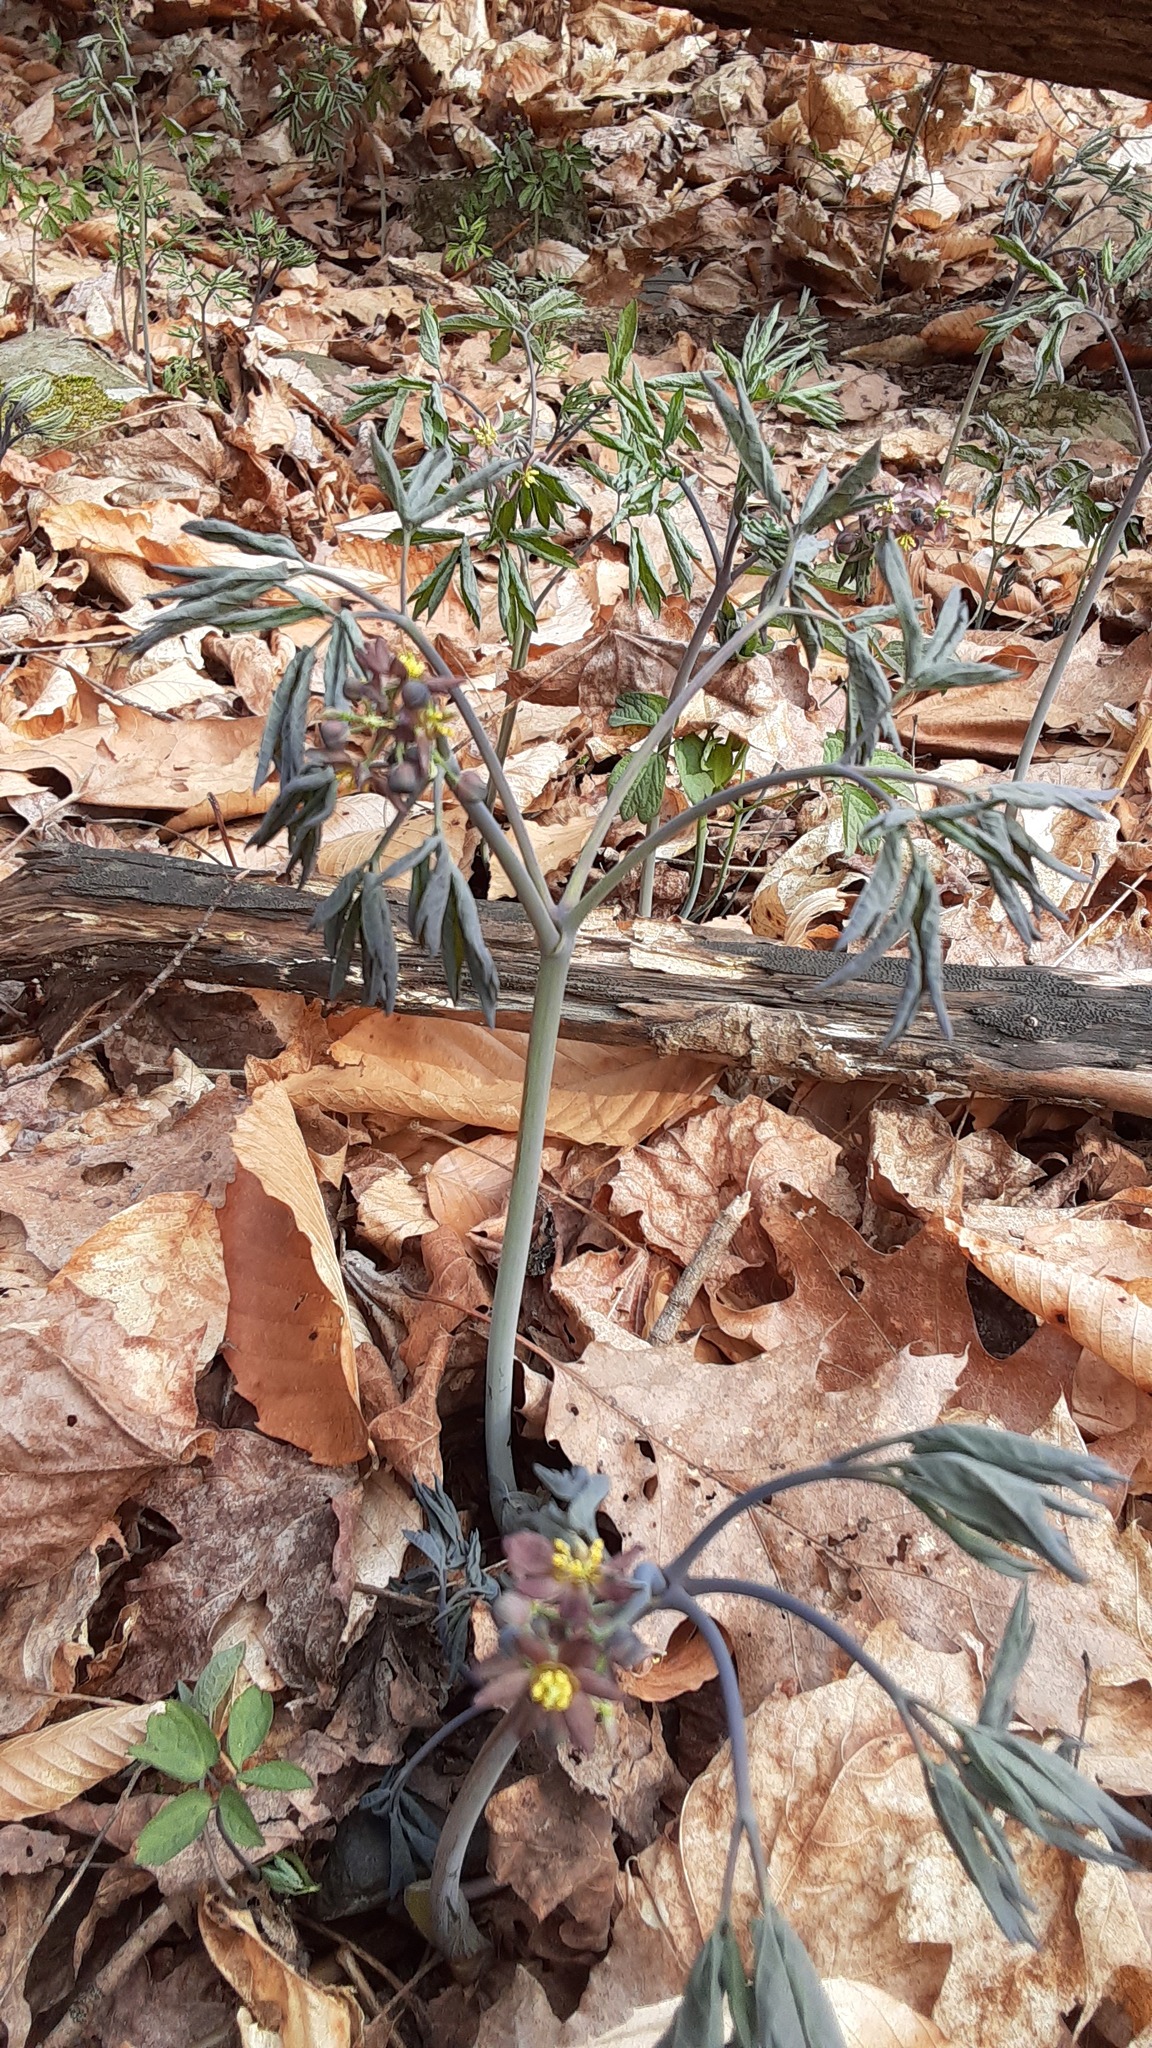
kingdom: Plantae
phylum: Tracheophyta
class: Magnoliopsida
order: Ranunculales
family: Berberidaceae
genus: Caulophyllum
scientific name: Caulophyllum giganteum
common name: Blue cohosh
